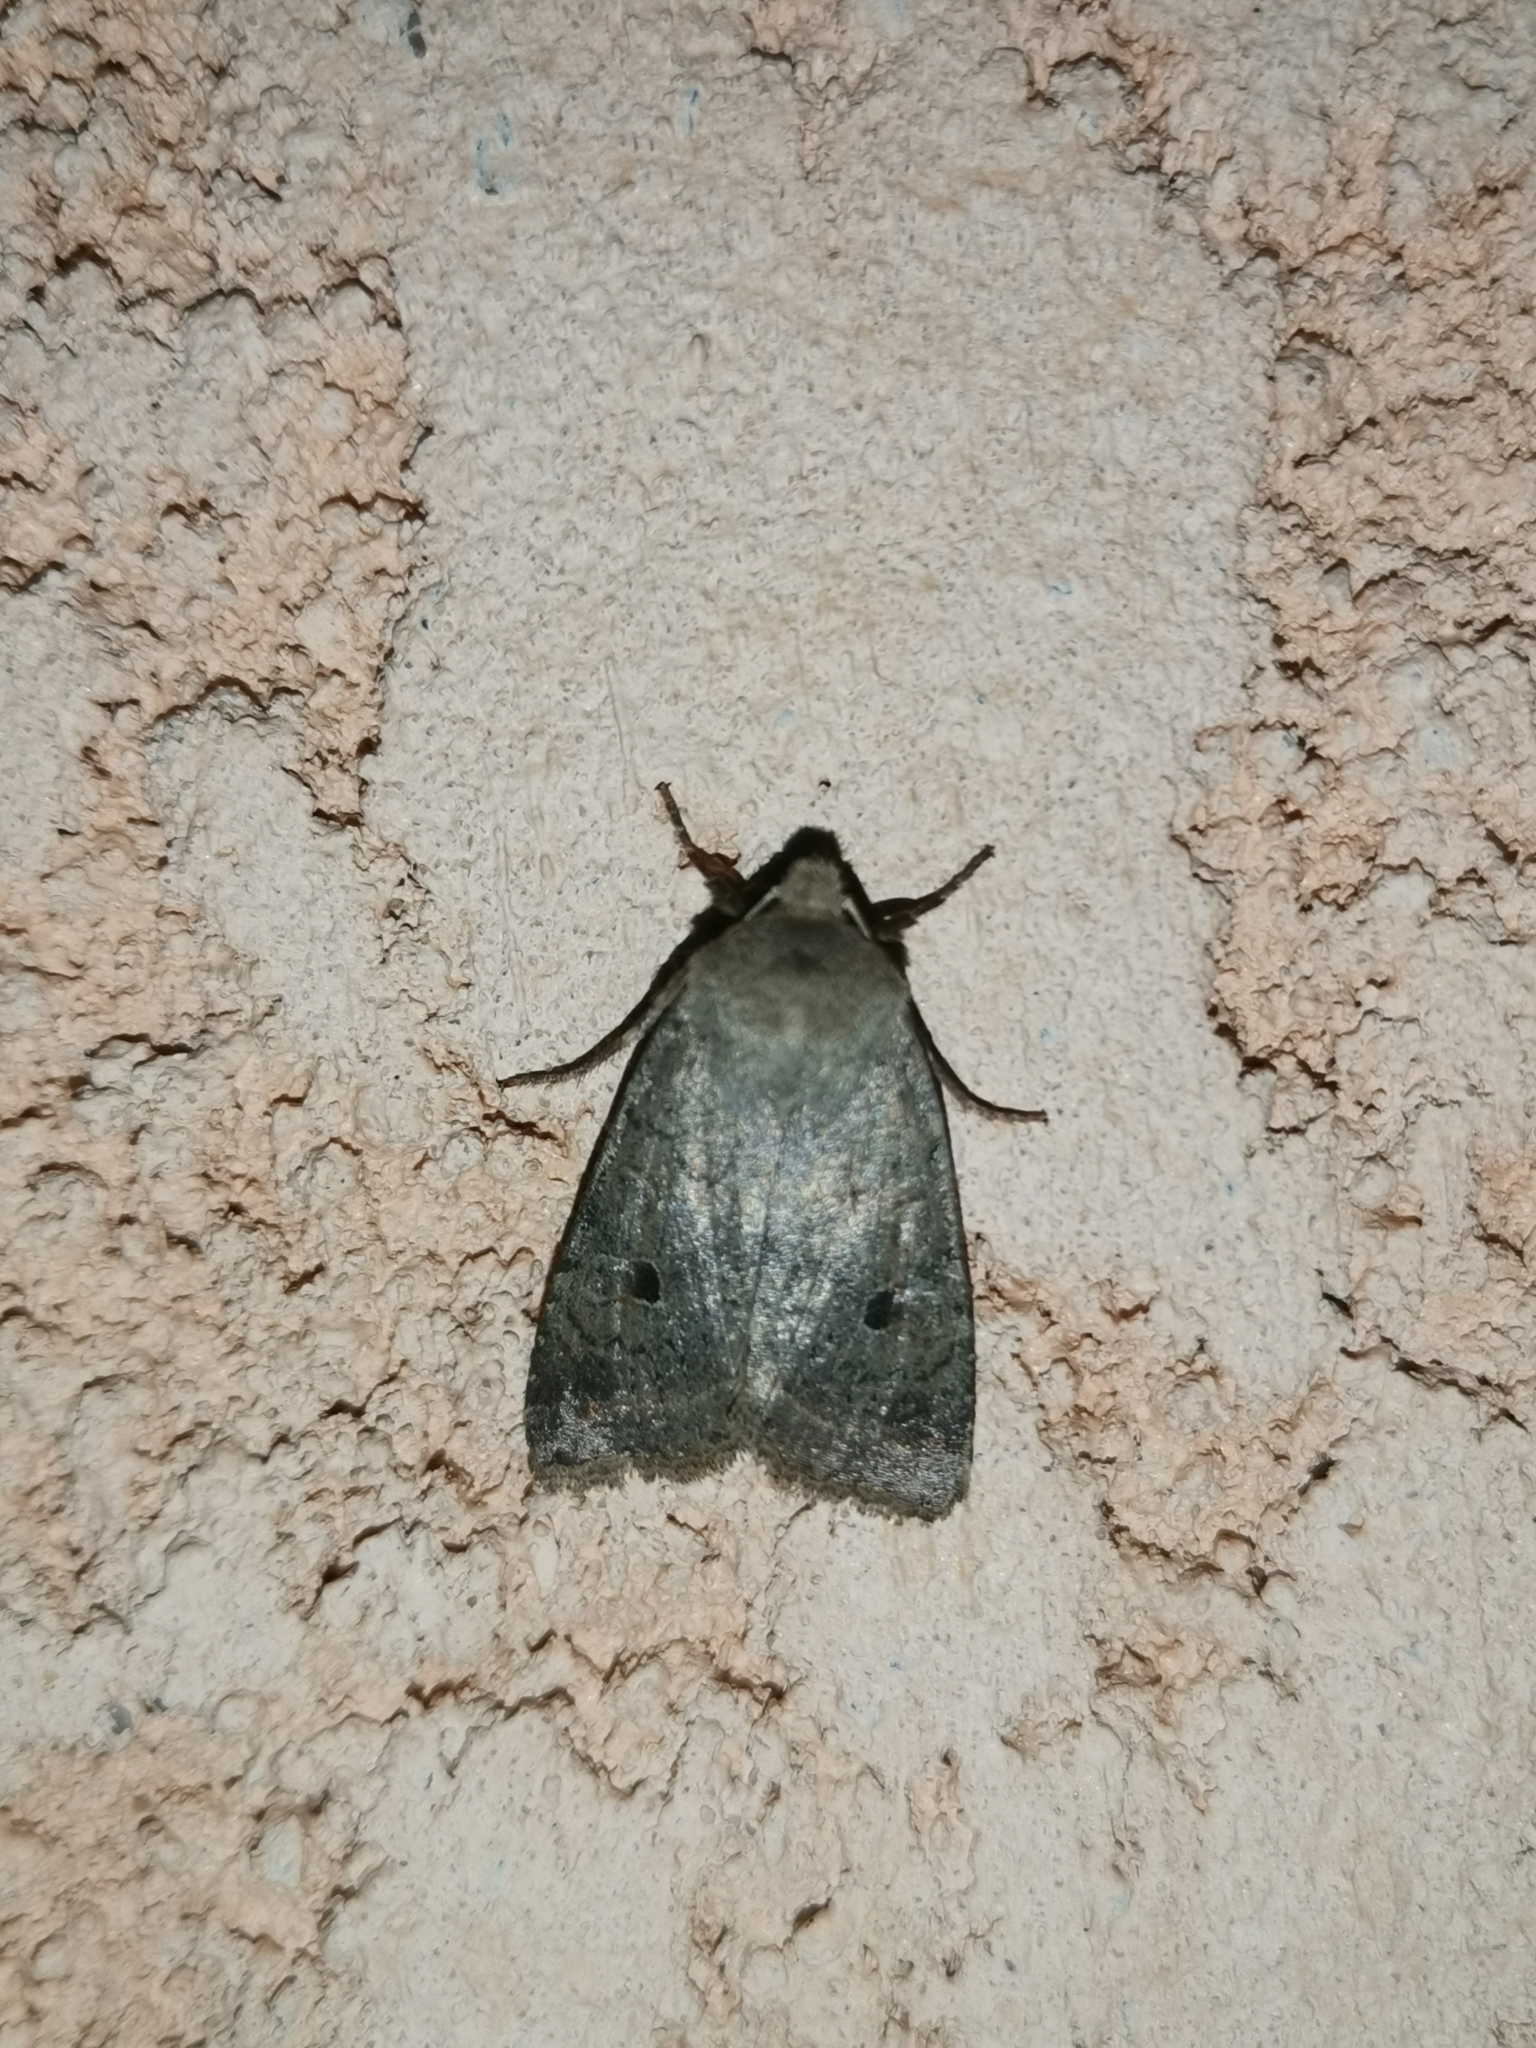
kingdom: Animalia
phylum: Arthropoda
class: Insecta
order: Lepidoptera
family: Noctuidae
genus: Agrochola
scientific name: Agrochola lota
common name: Red-line quaker
